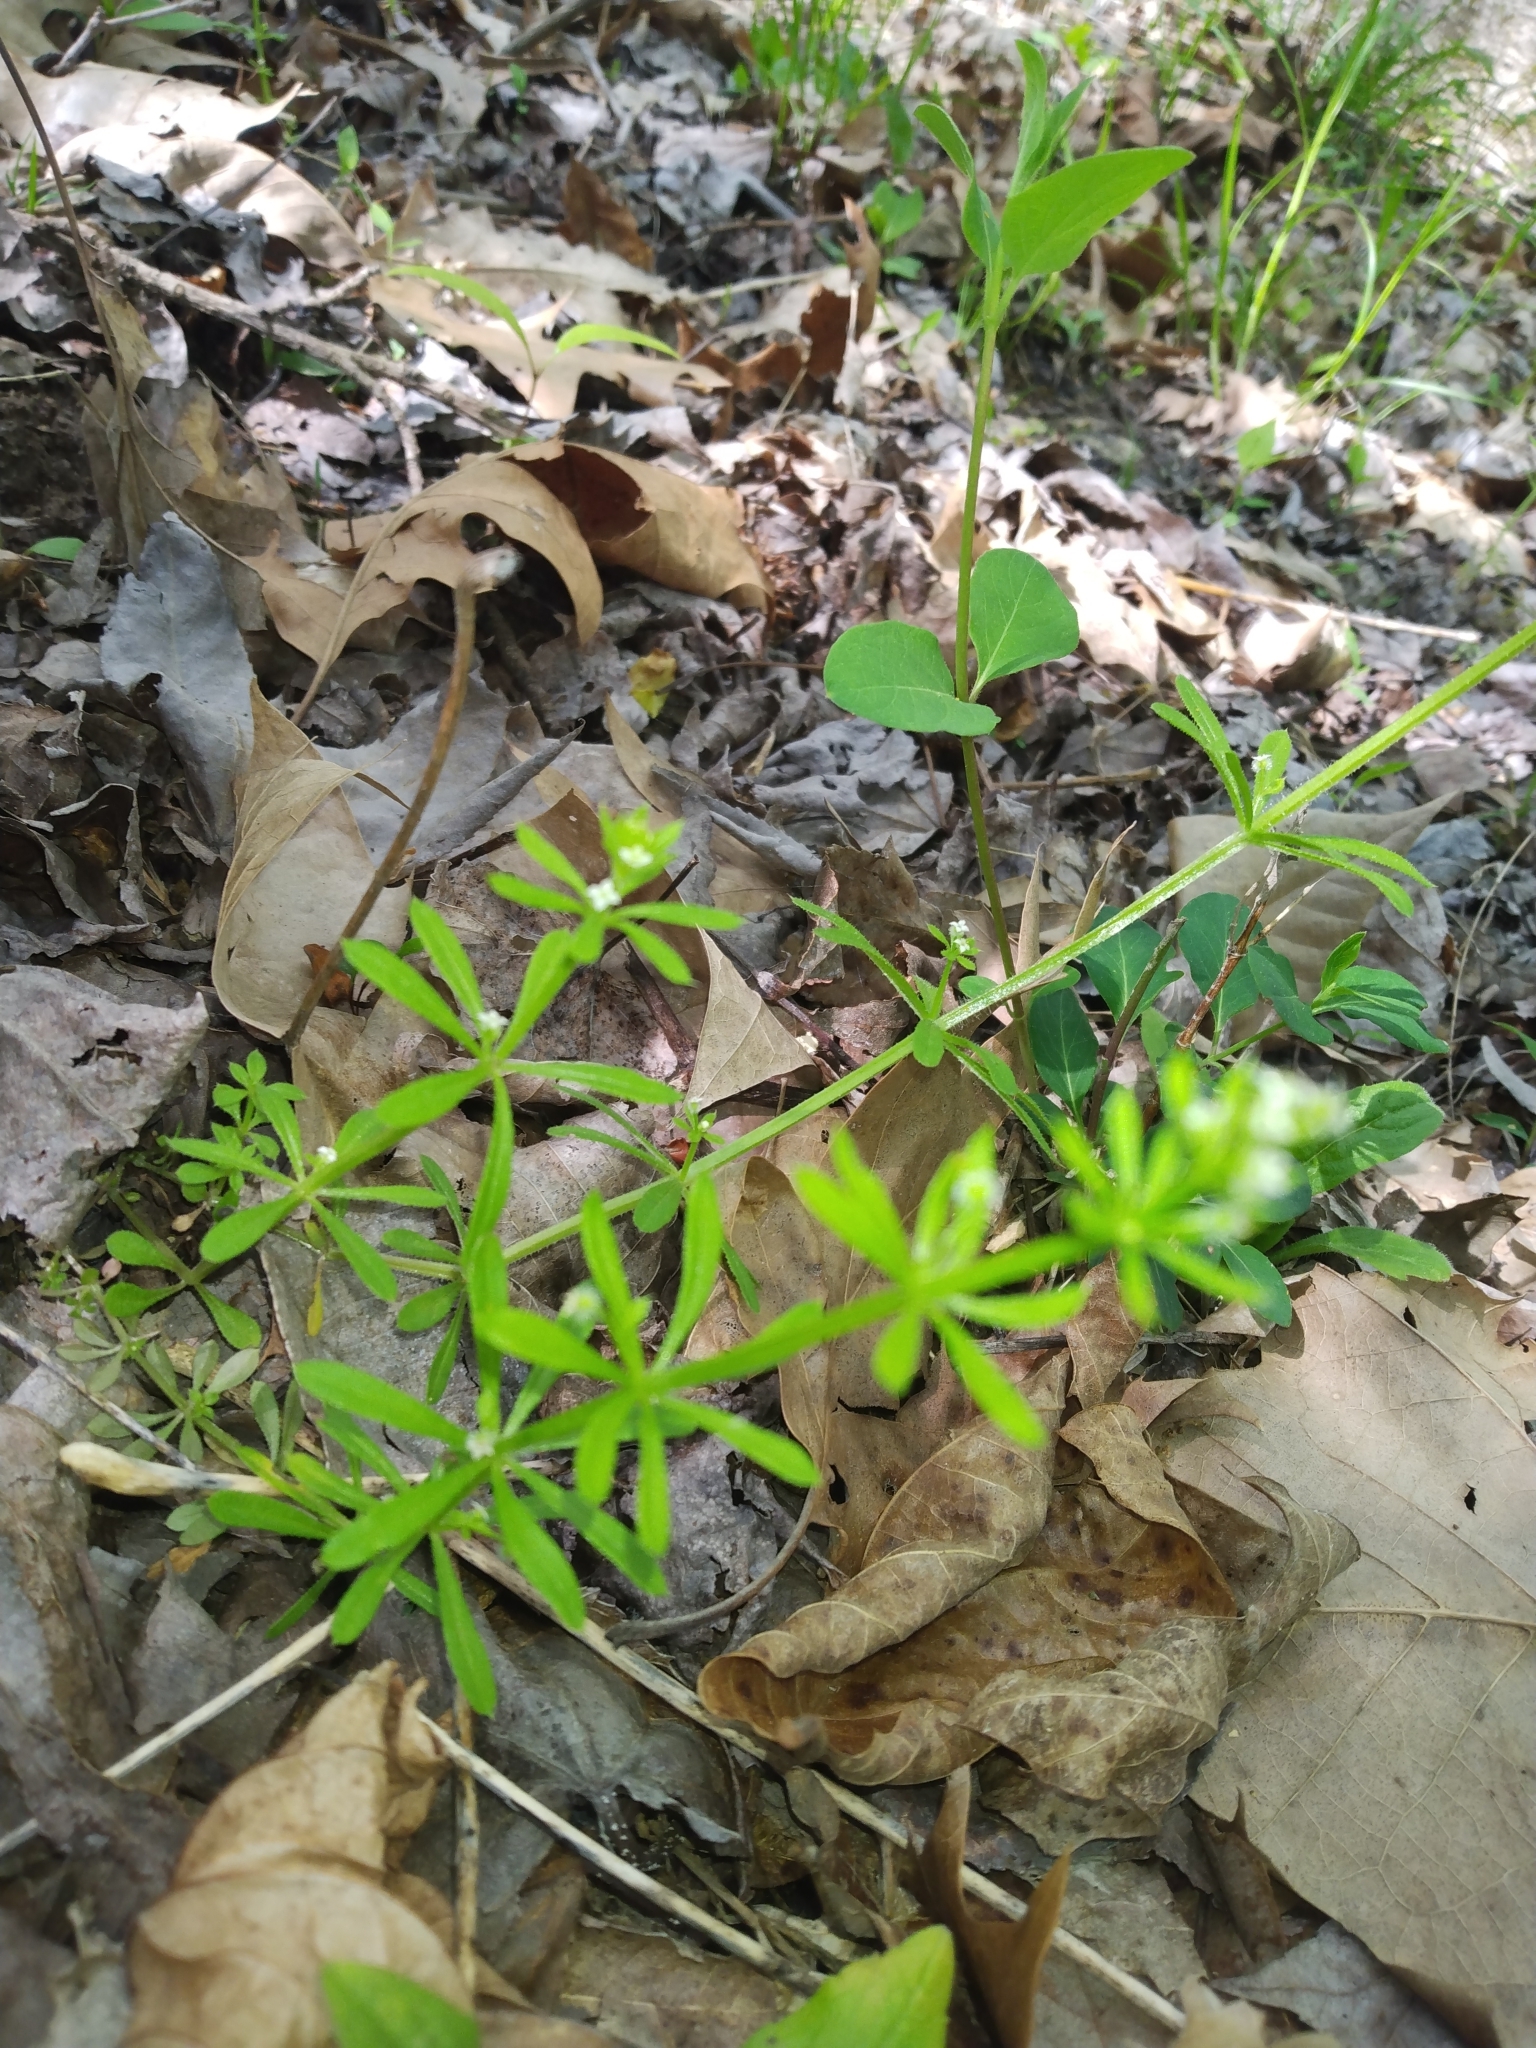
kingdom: Plantae
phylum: Tracheophyta
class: Magnoliopsida
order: Gentianales
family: Rubiaceae
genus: Galium
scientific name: Galium aparine
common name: Cleavers
